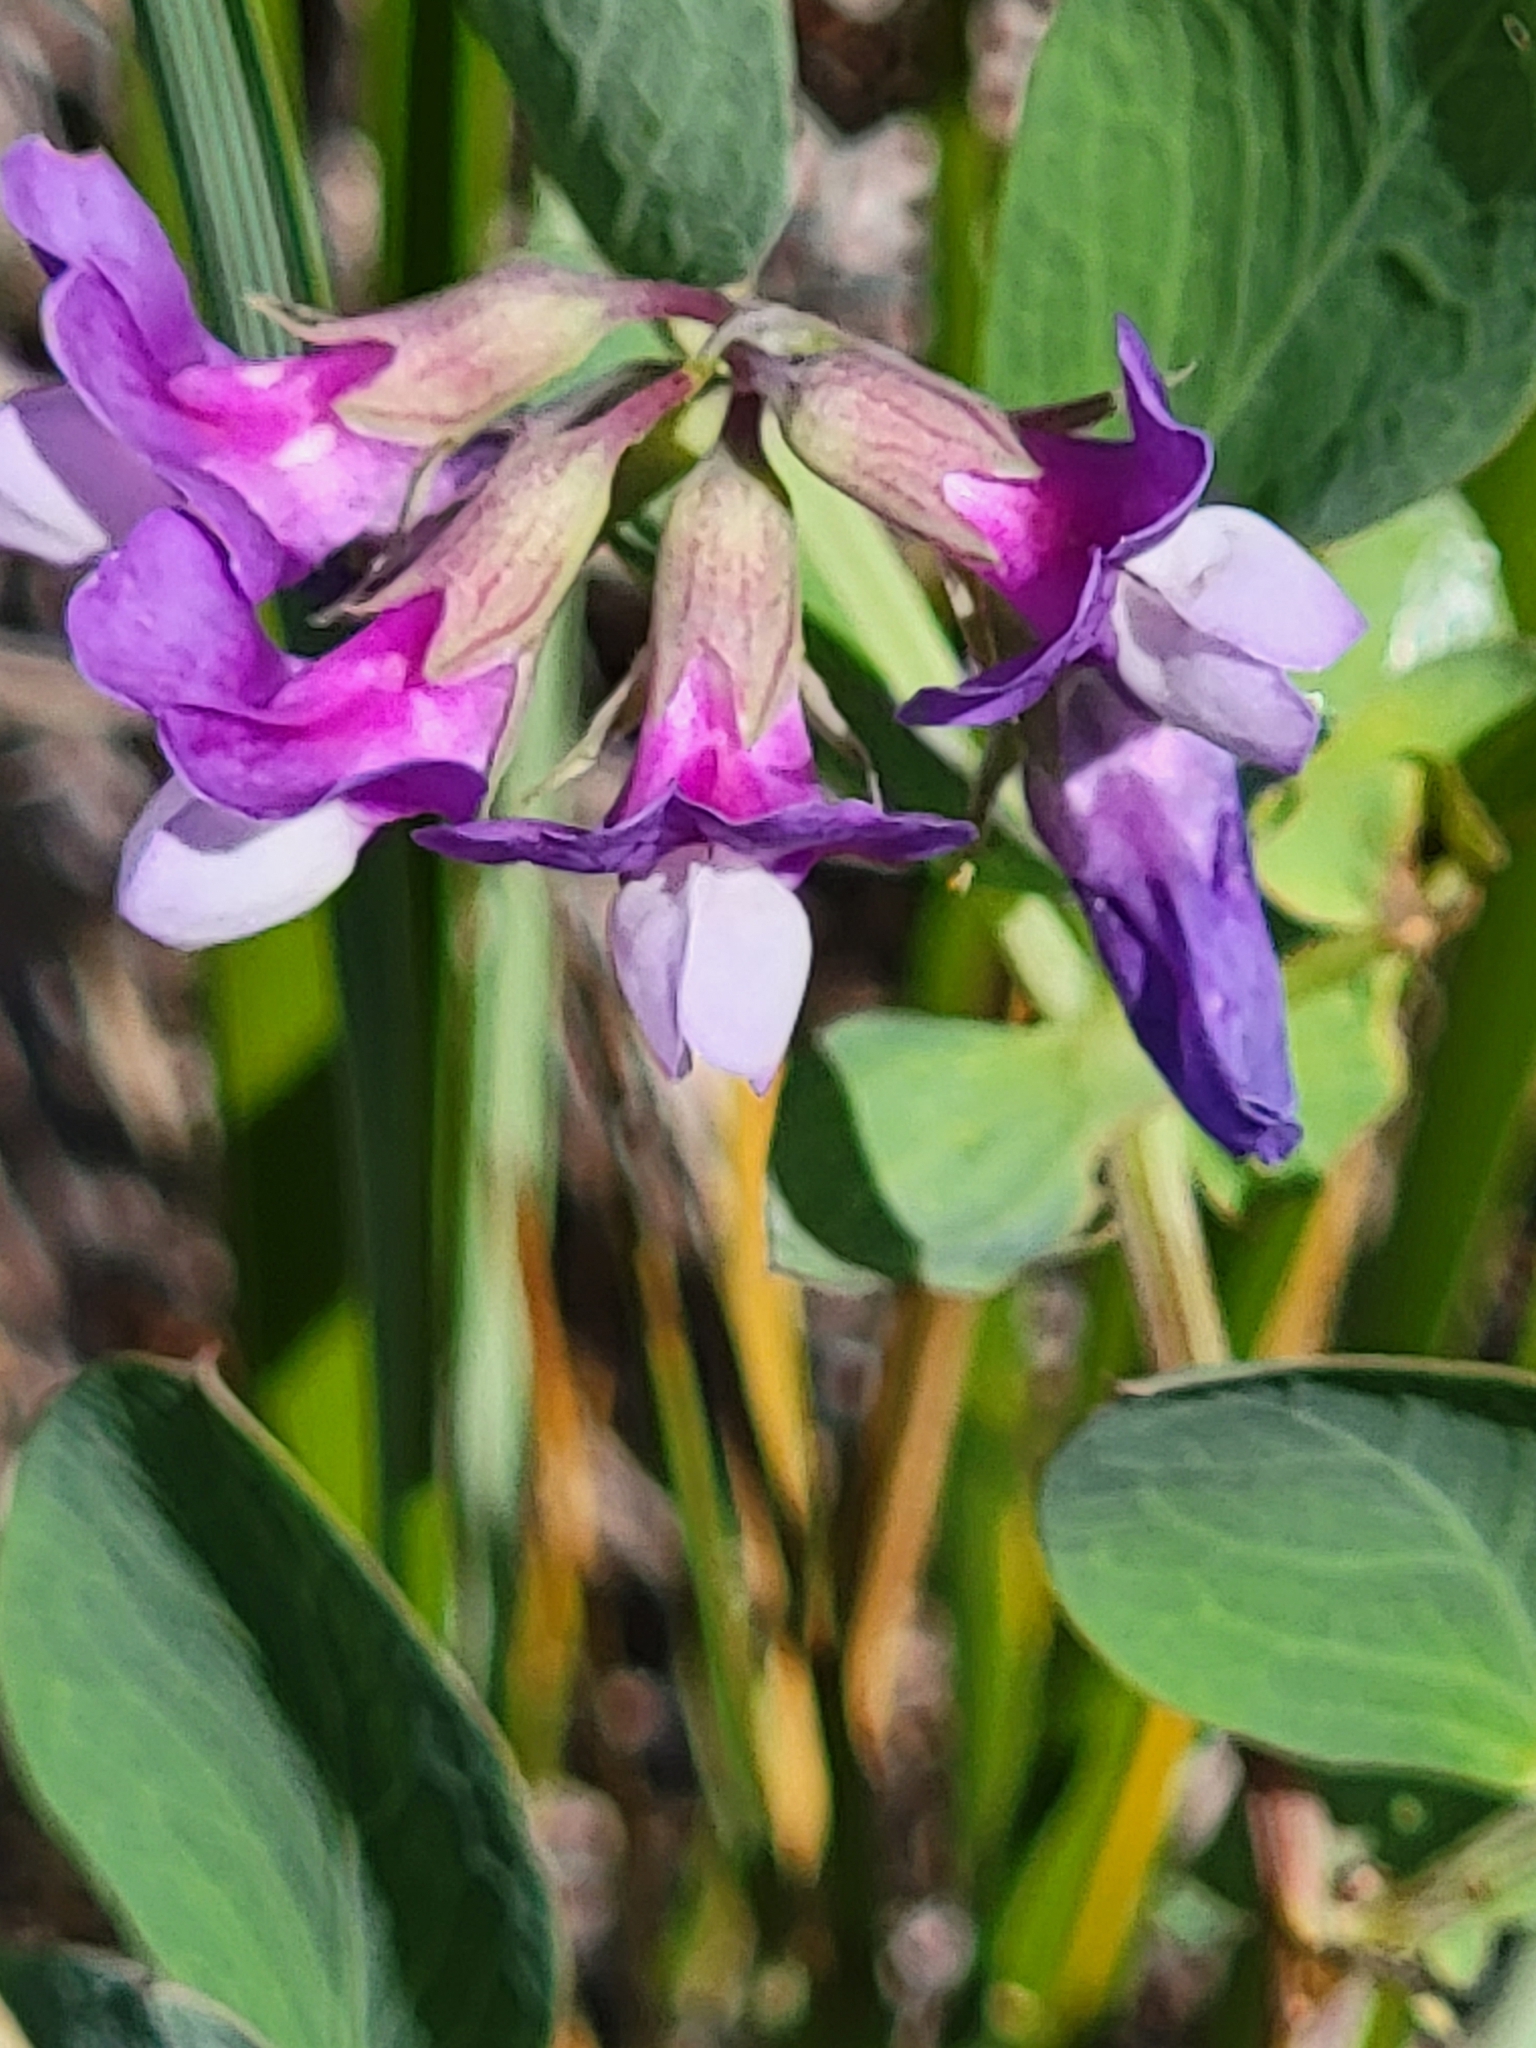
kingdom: Plantae
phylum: Tracheophyta
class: Magnoliopsida
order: Fabales
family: Fabaceae
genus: Lathyrus
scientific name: Lathyrus japonicus
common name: Sea pea
